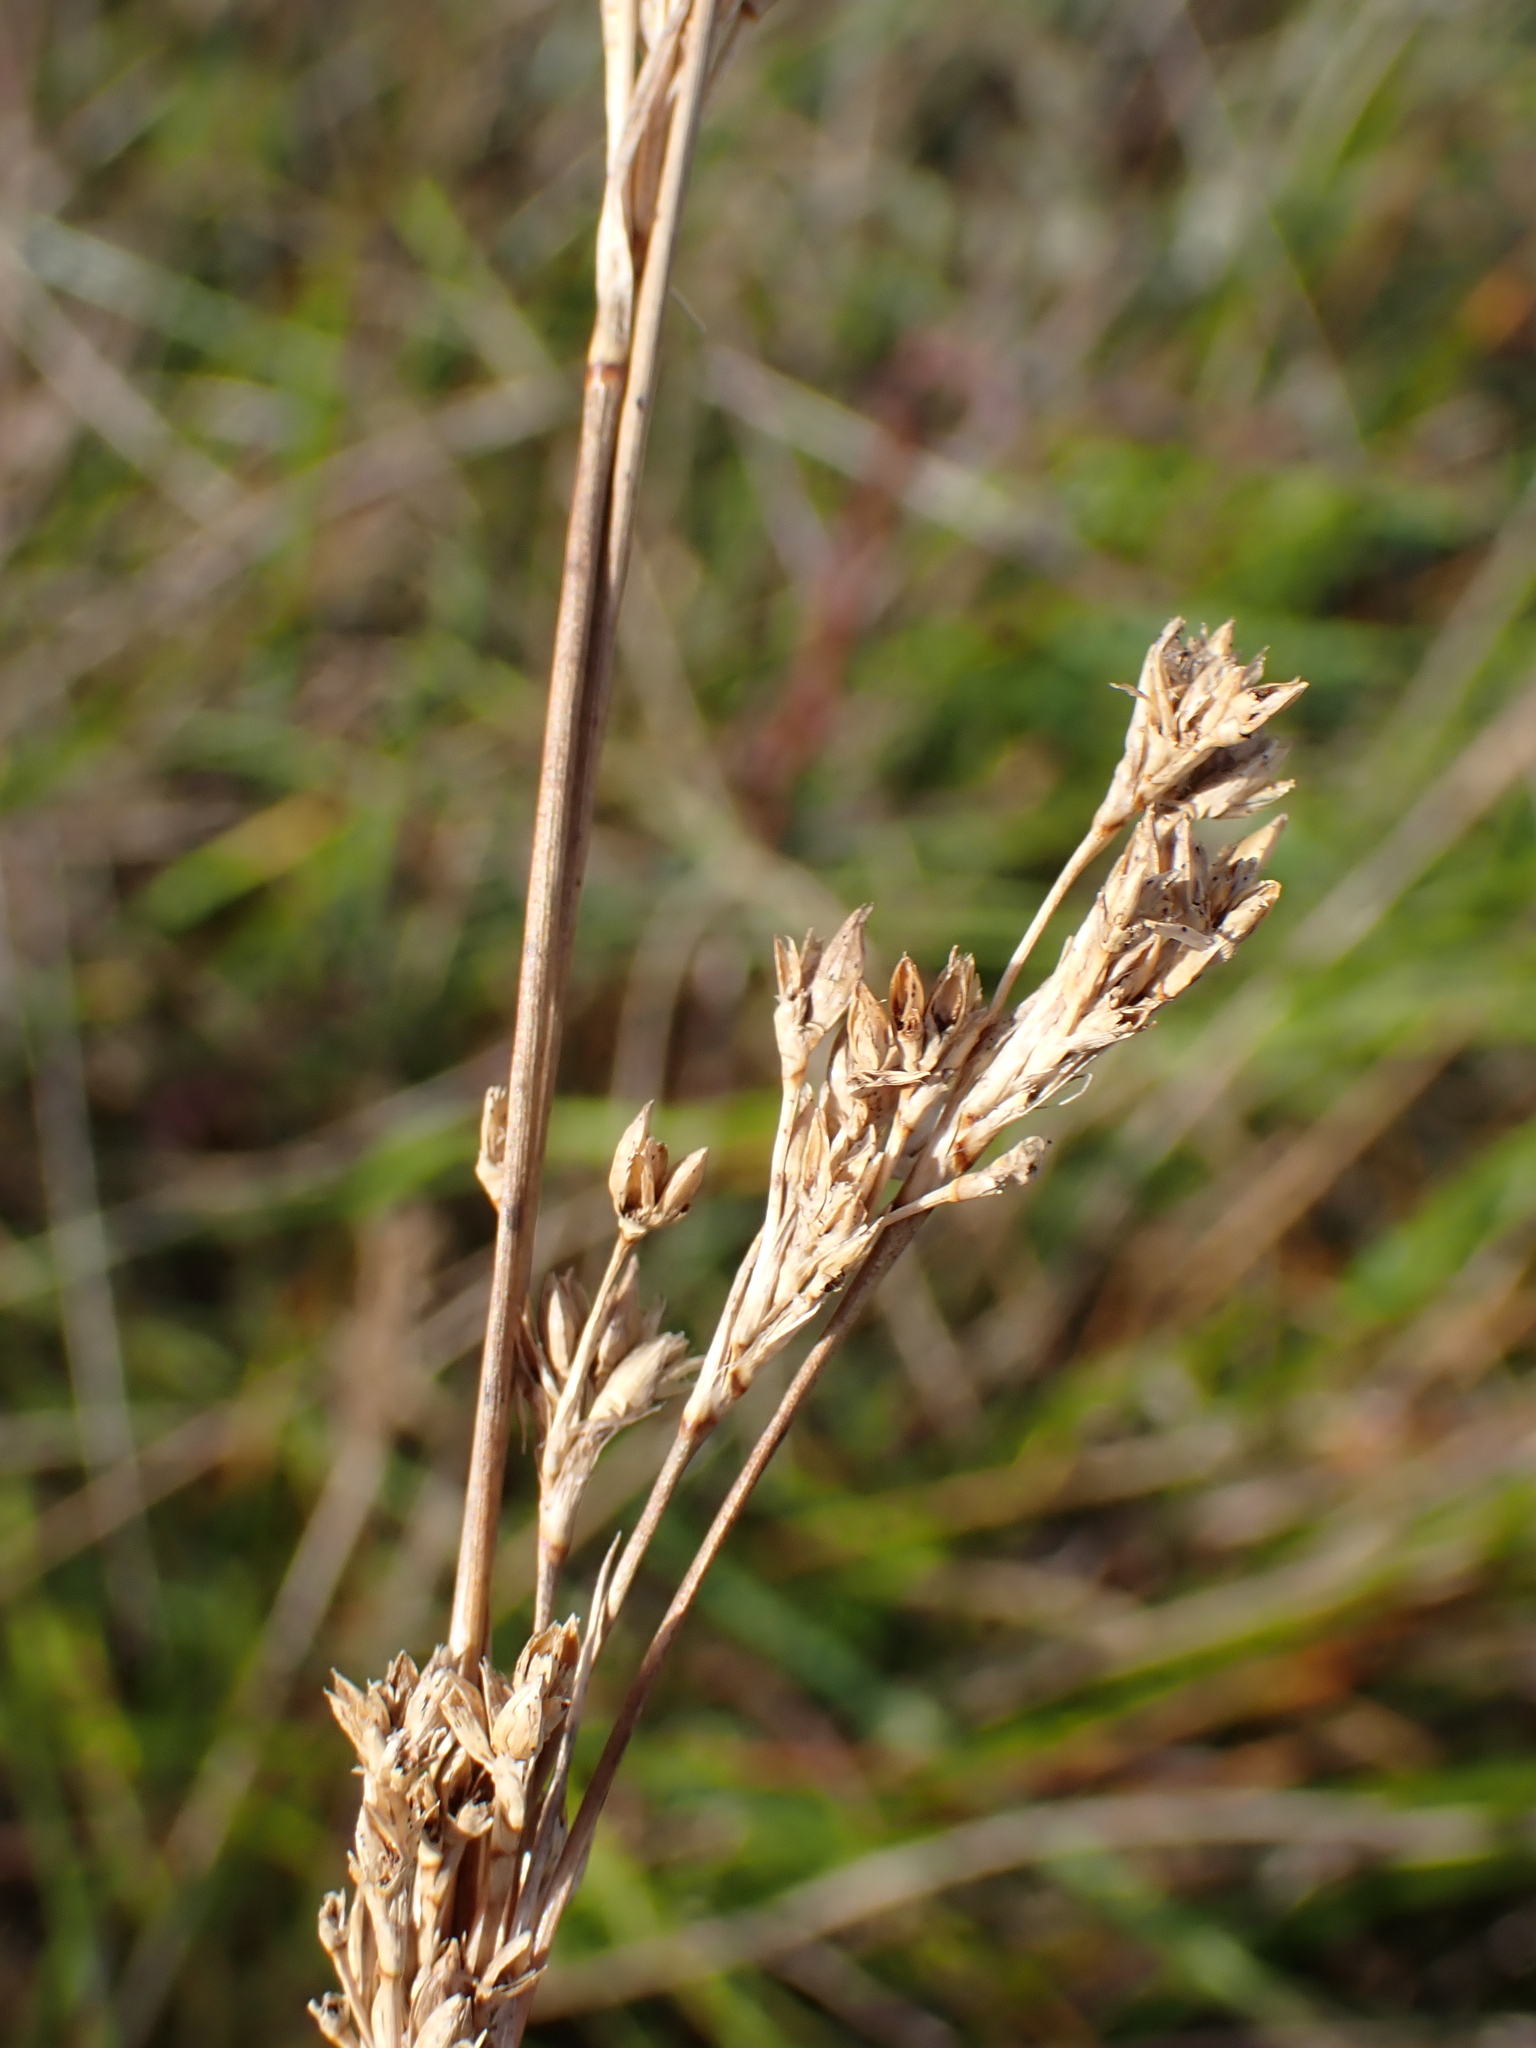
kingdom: Plantae
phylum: Tracheophyta
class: Liliopsida
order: Poales
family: Juncaceae
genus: Juncus
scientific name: Juncus maritimus
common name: Sea rush
